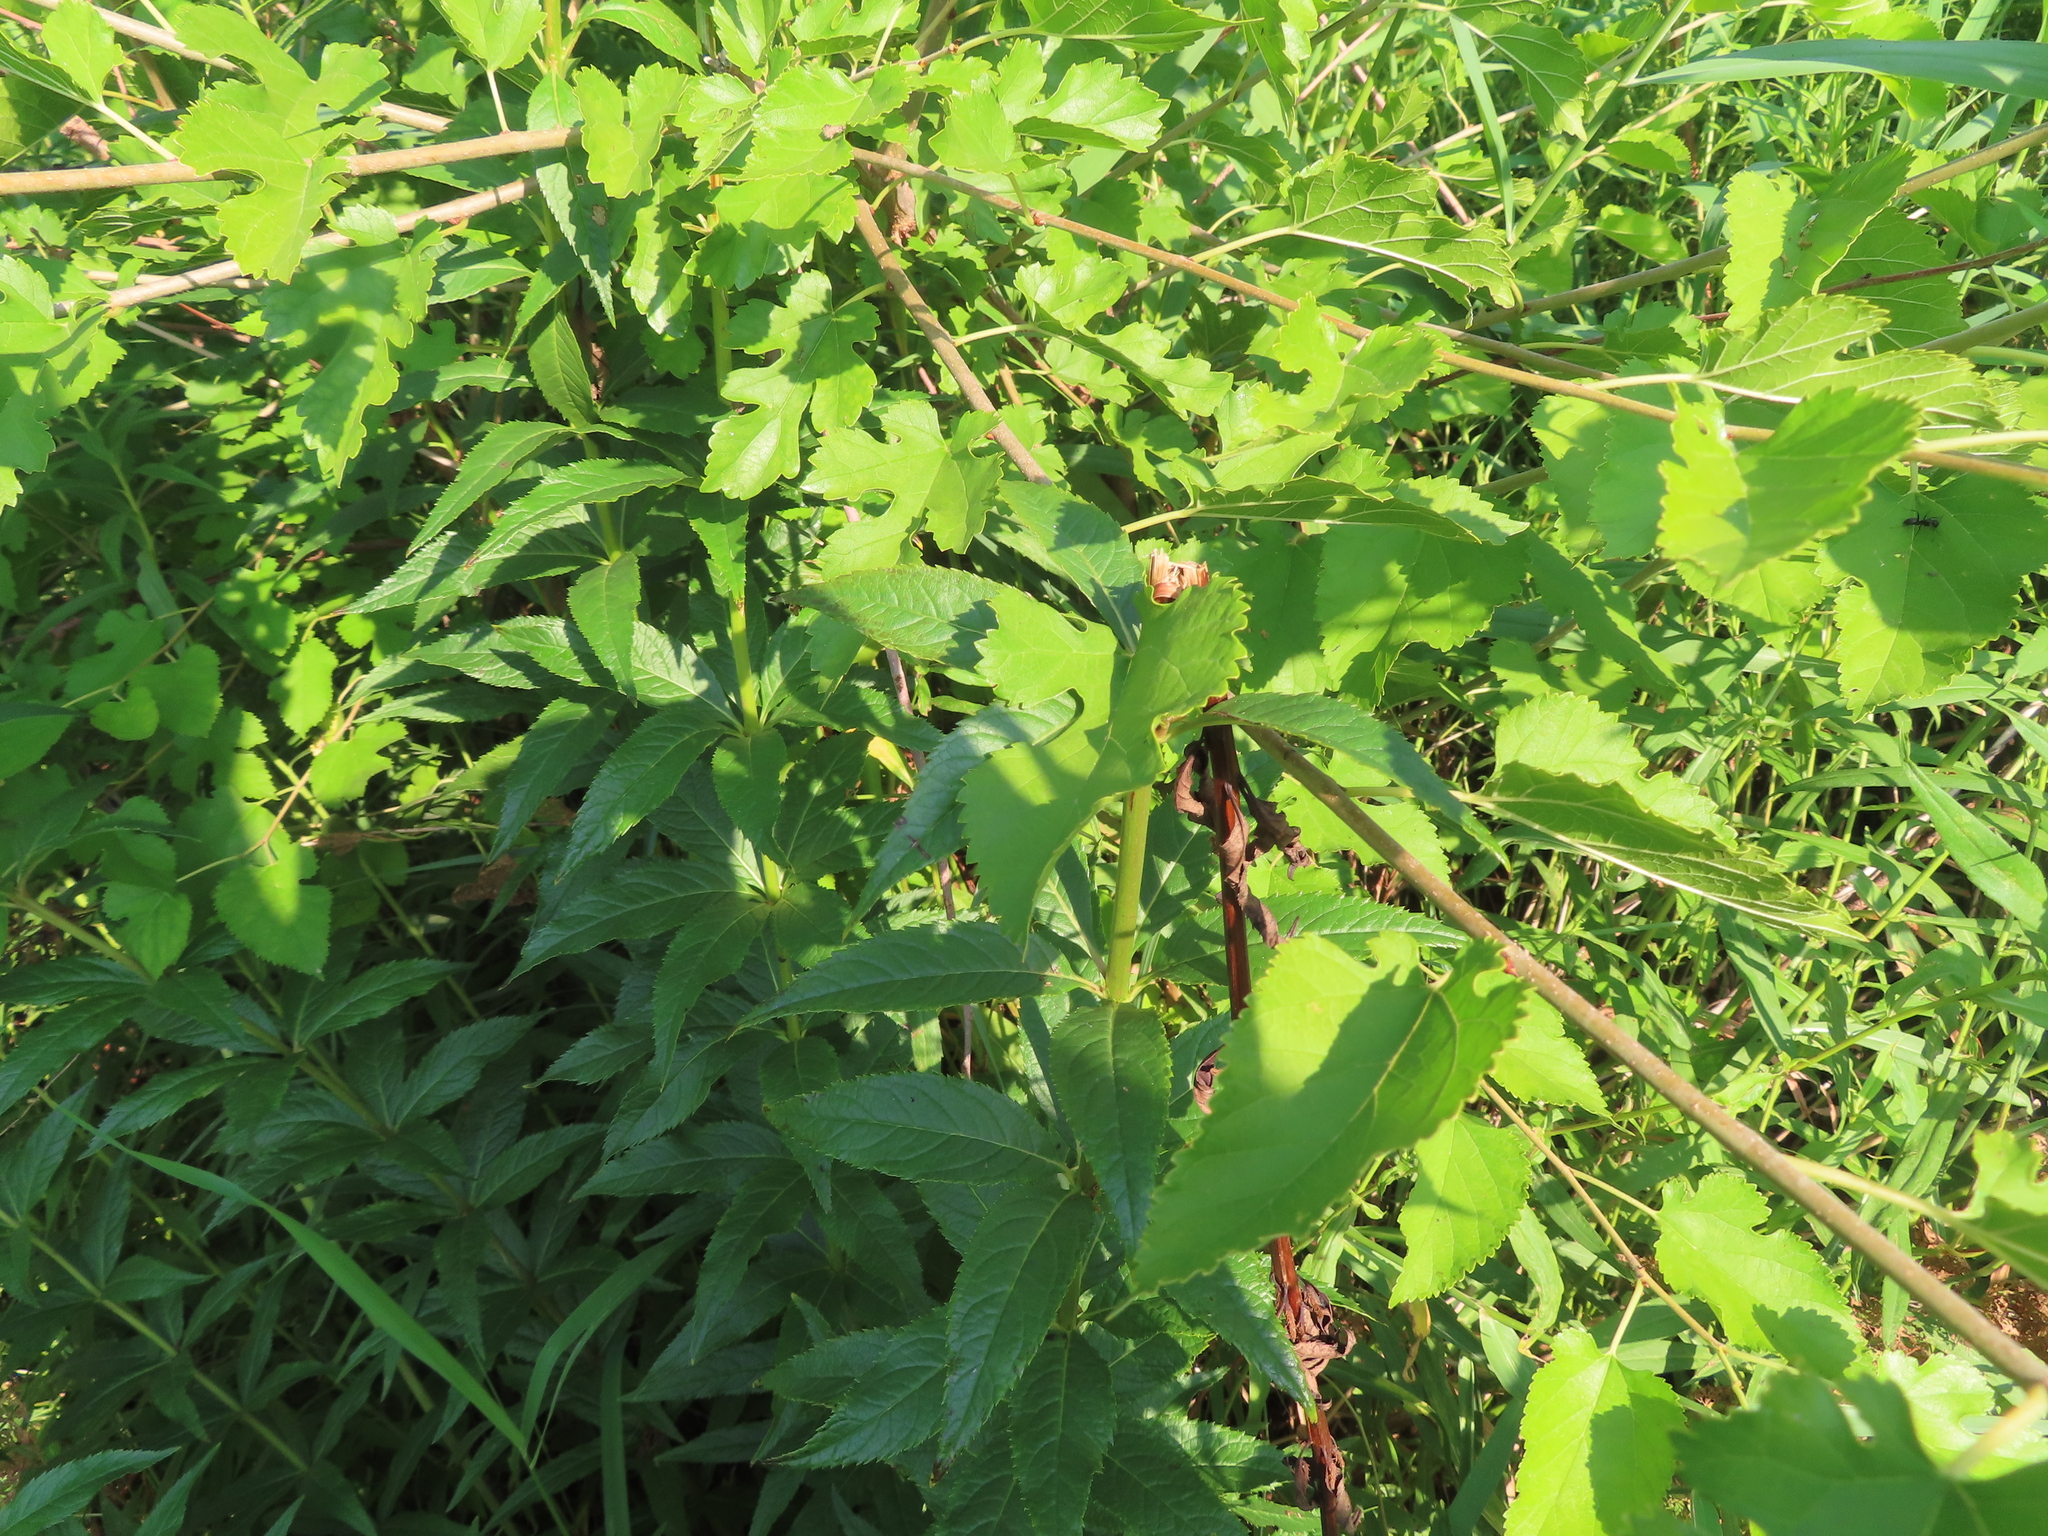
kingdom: Plantae
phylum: Tracheophyta
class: Magnoliopsida
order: Rosales
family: Moraceae
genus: Morus
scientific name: Morus alba
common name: White mulberry
